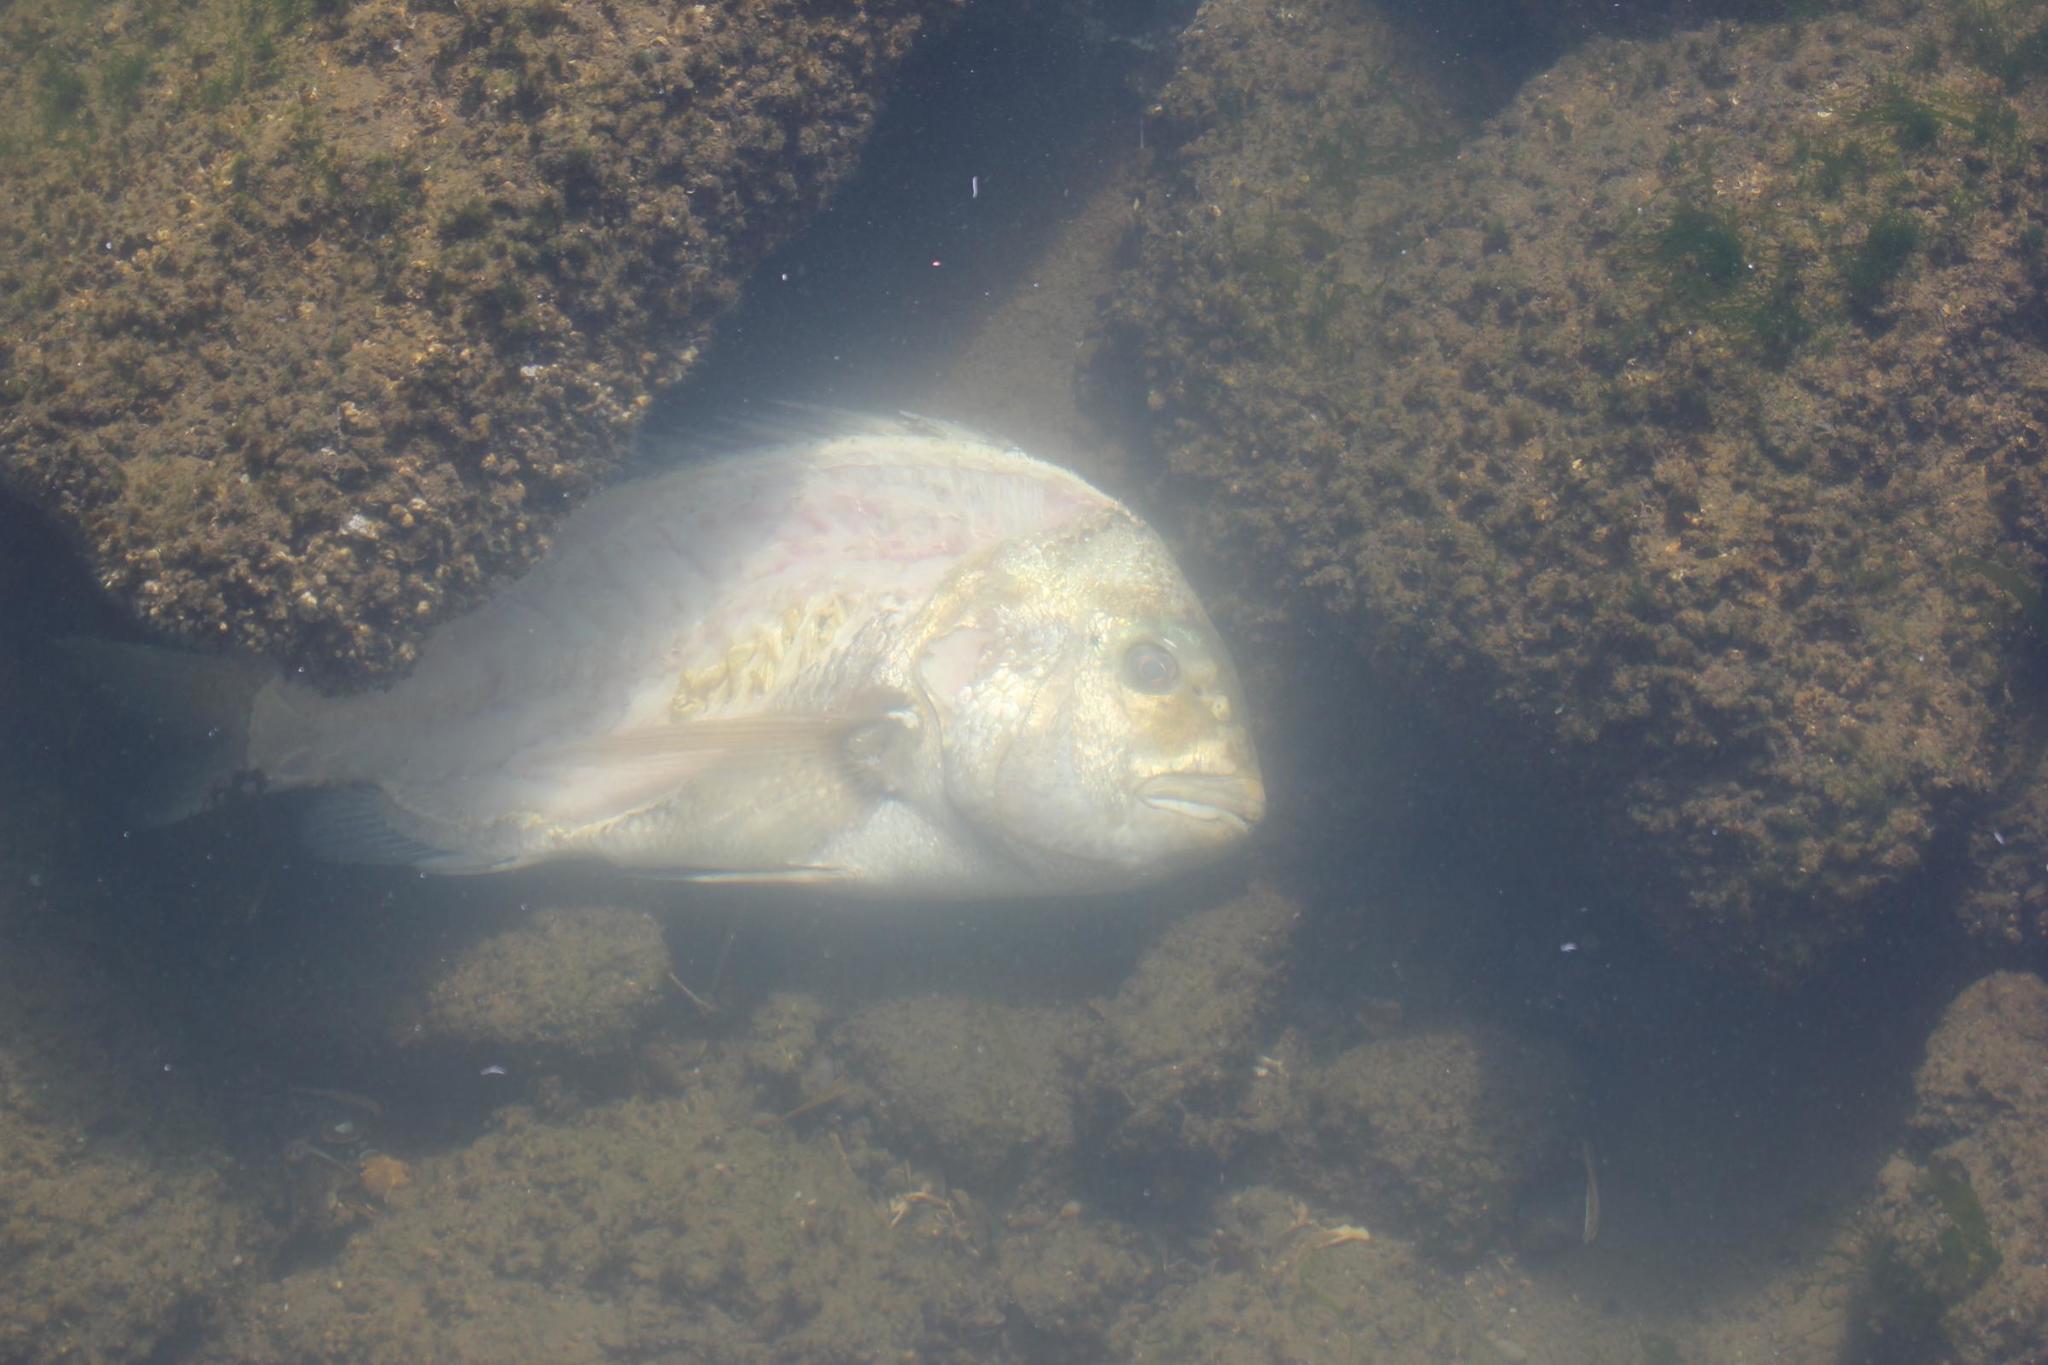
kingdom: Animalia
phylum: Chordata
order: Perciformes
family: Sparidae
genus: Archosargus
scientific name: Archosargus probatocephalus
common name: Sheepshead
